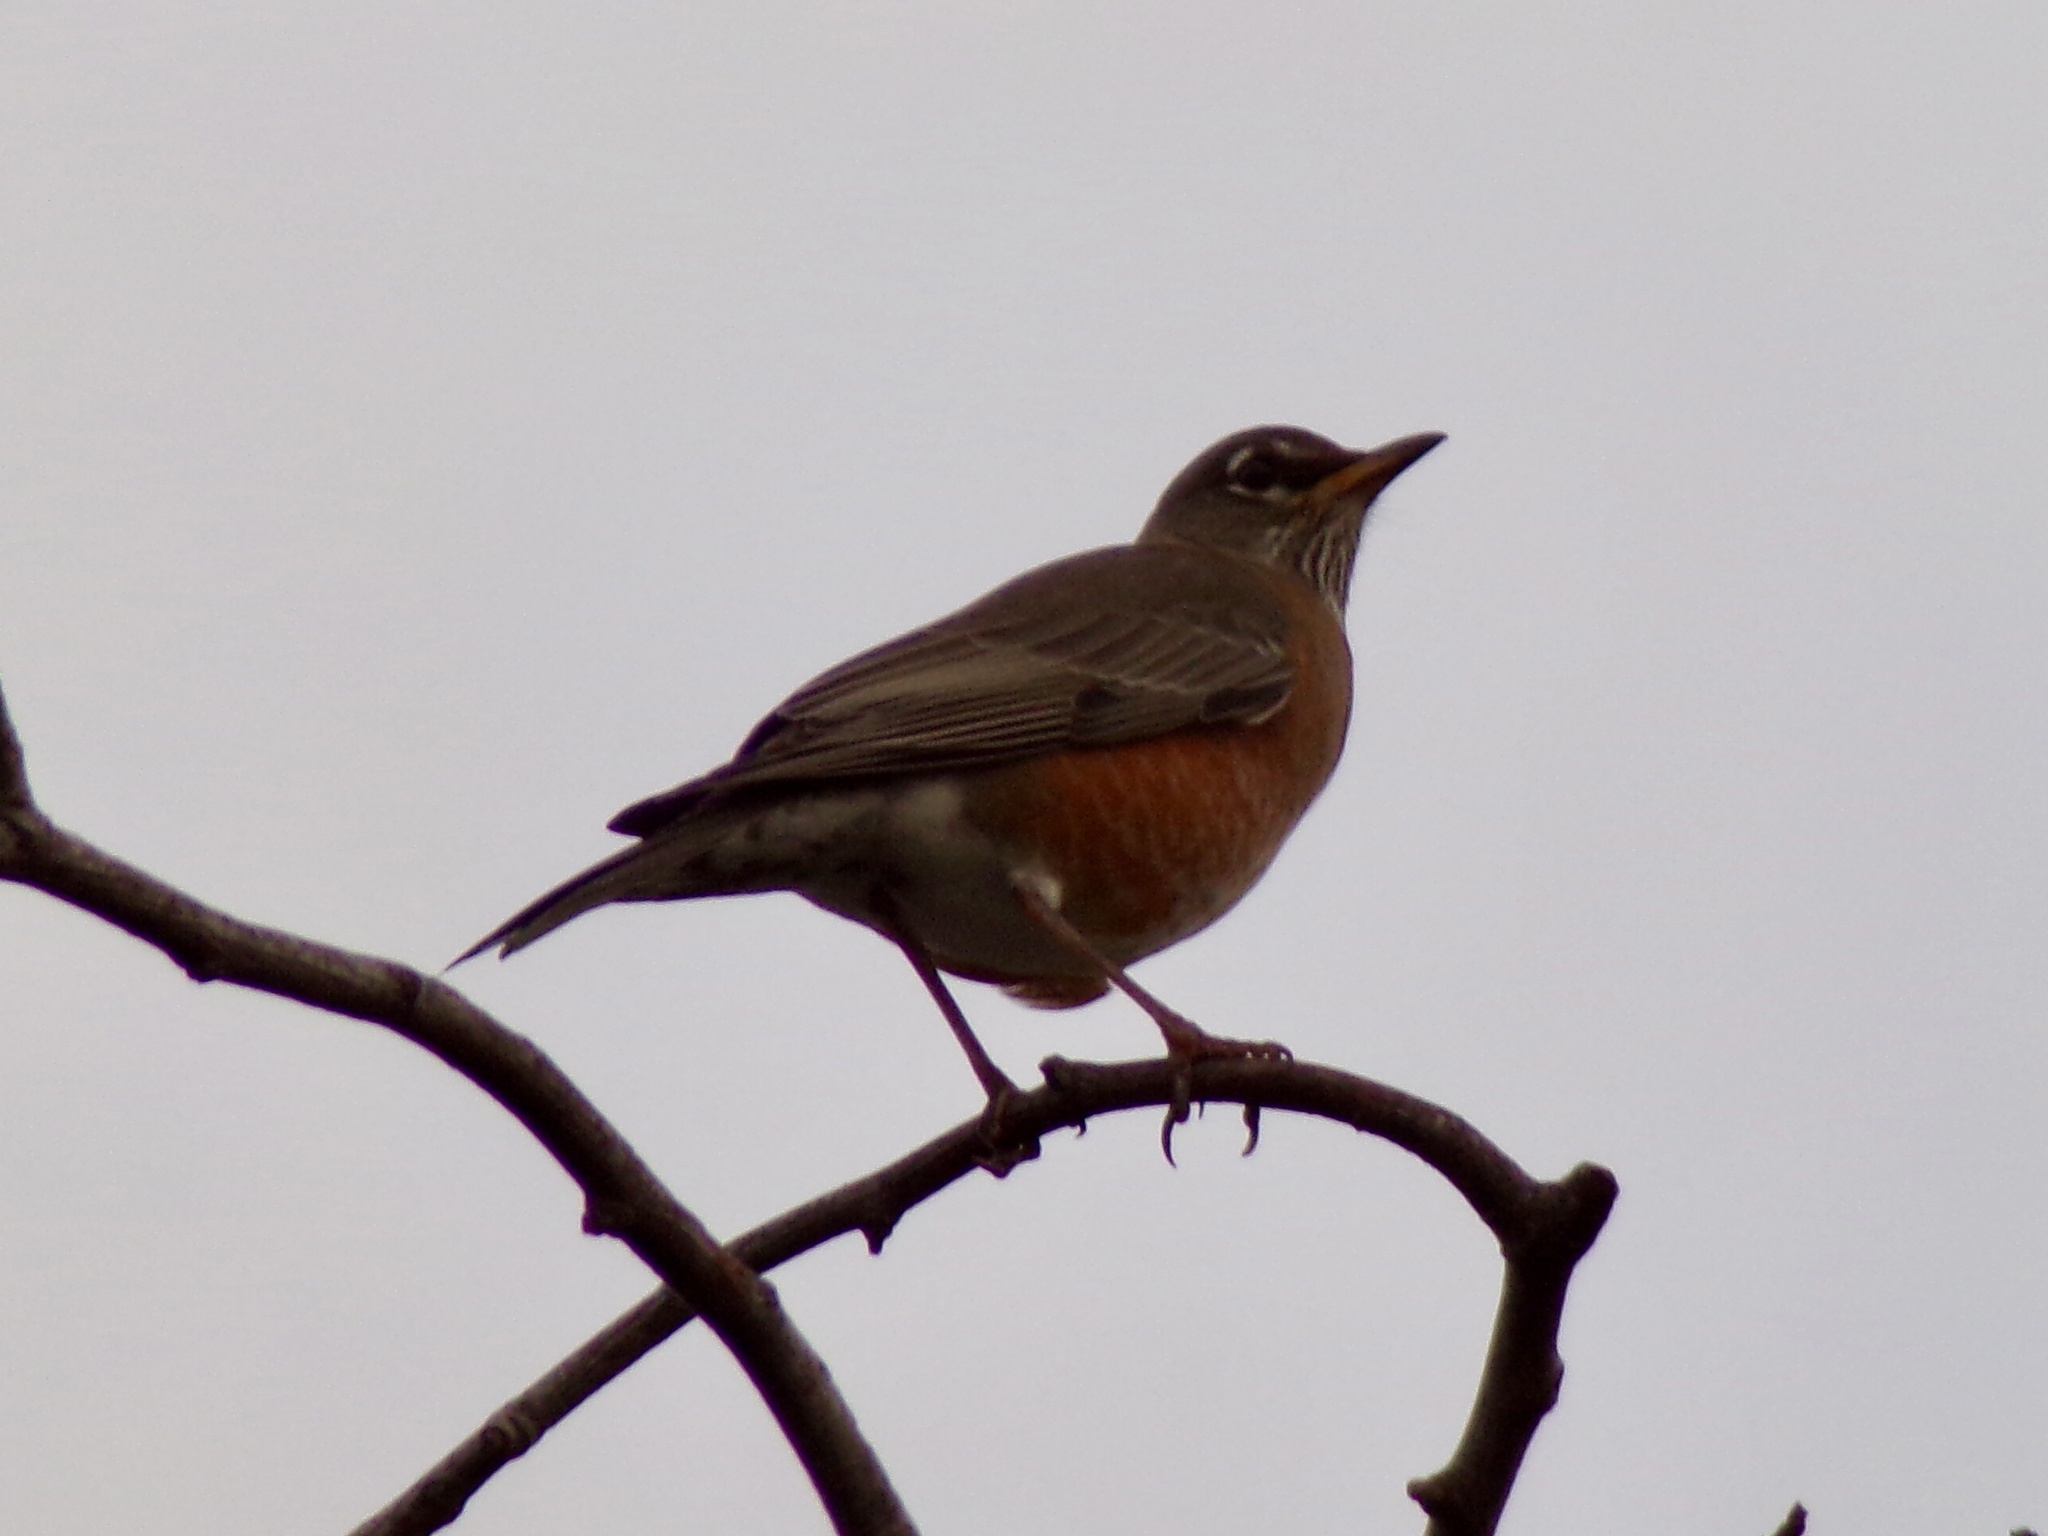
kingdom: Animalia
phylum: Chordata
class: Aves
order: Passeriformes
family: Turdidae
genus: Turdus
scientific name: Turdus migratorius
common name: American robin
